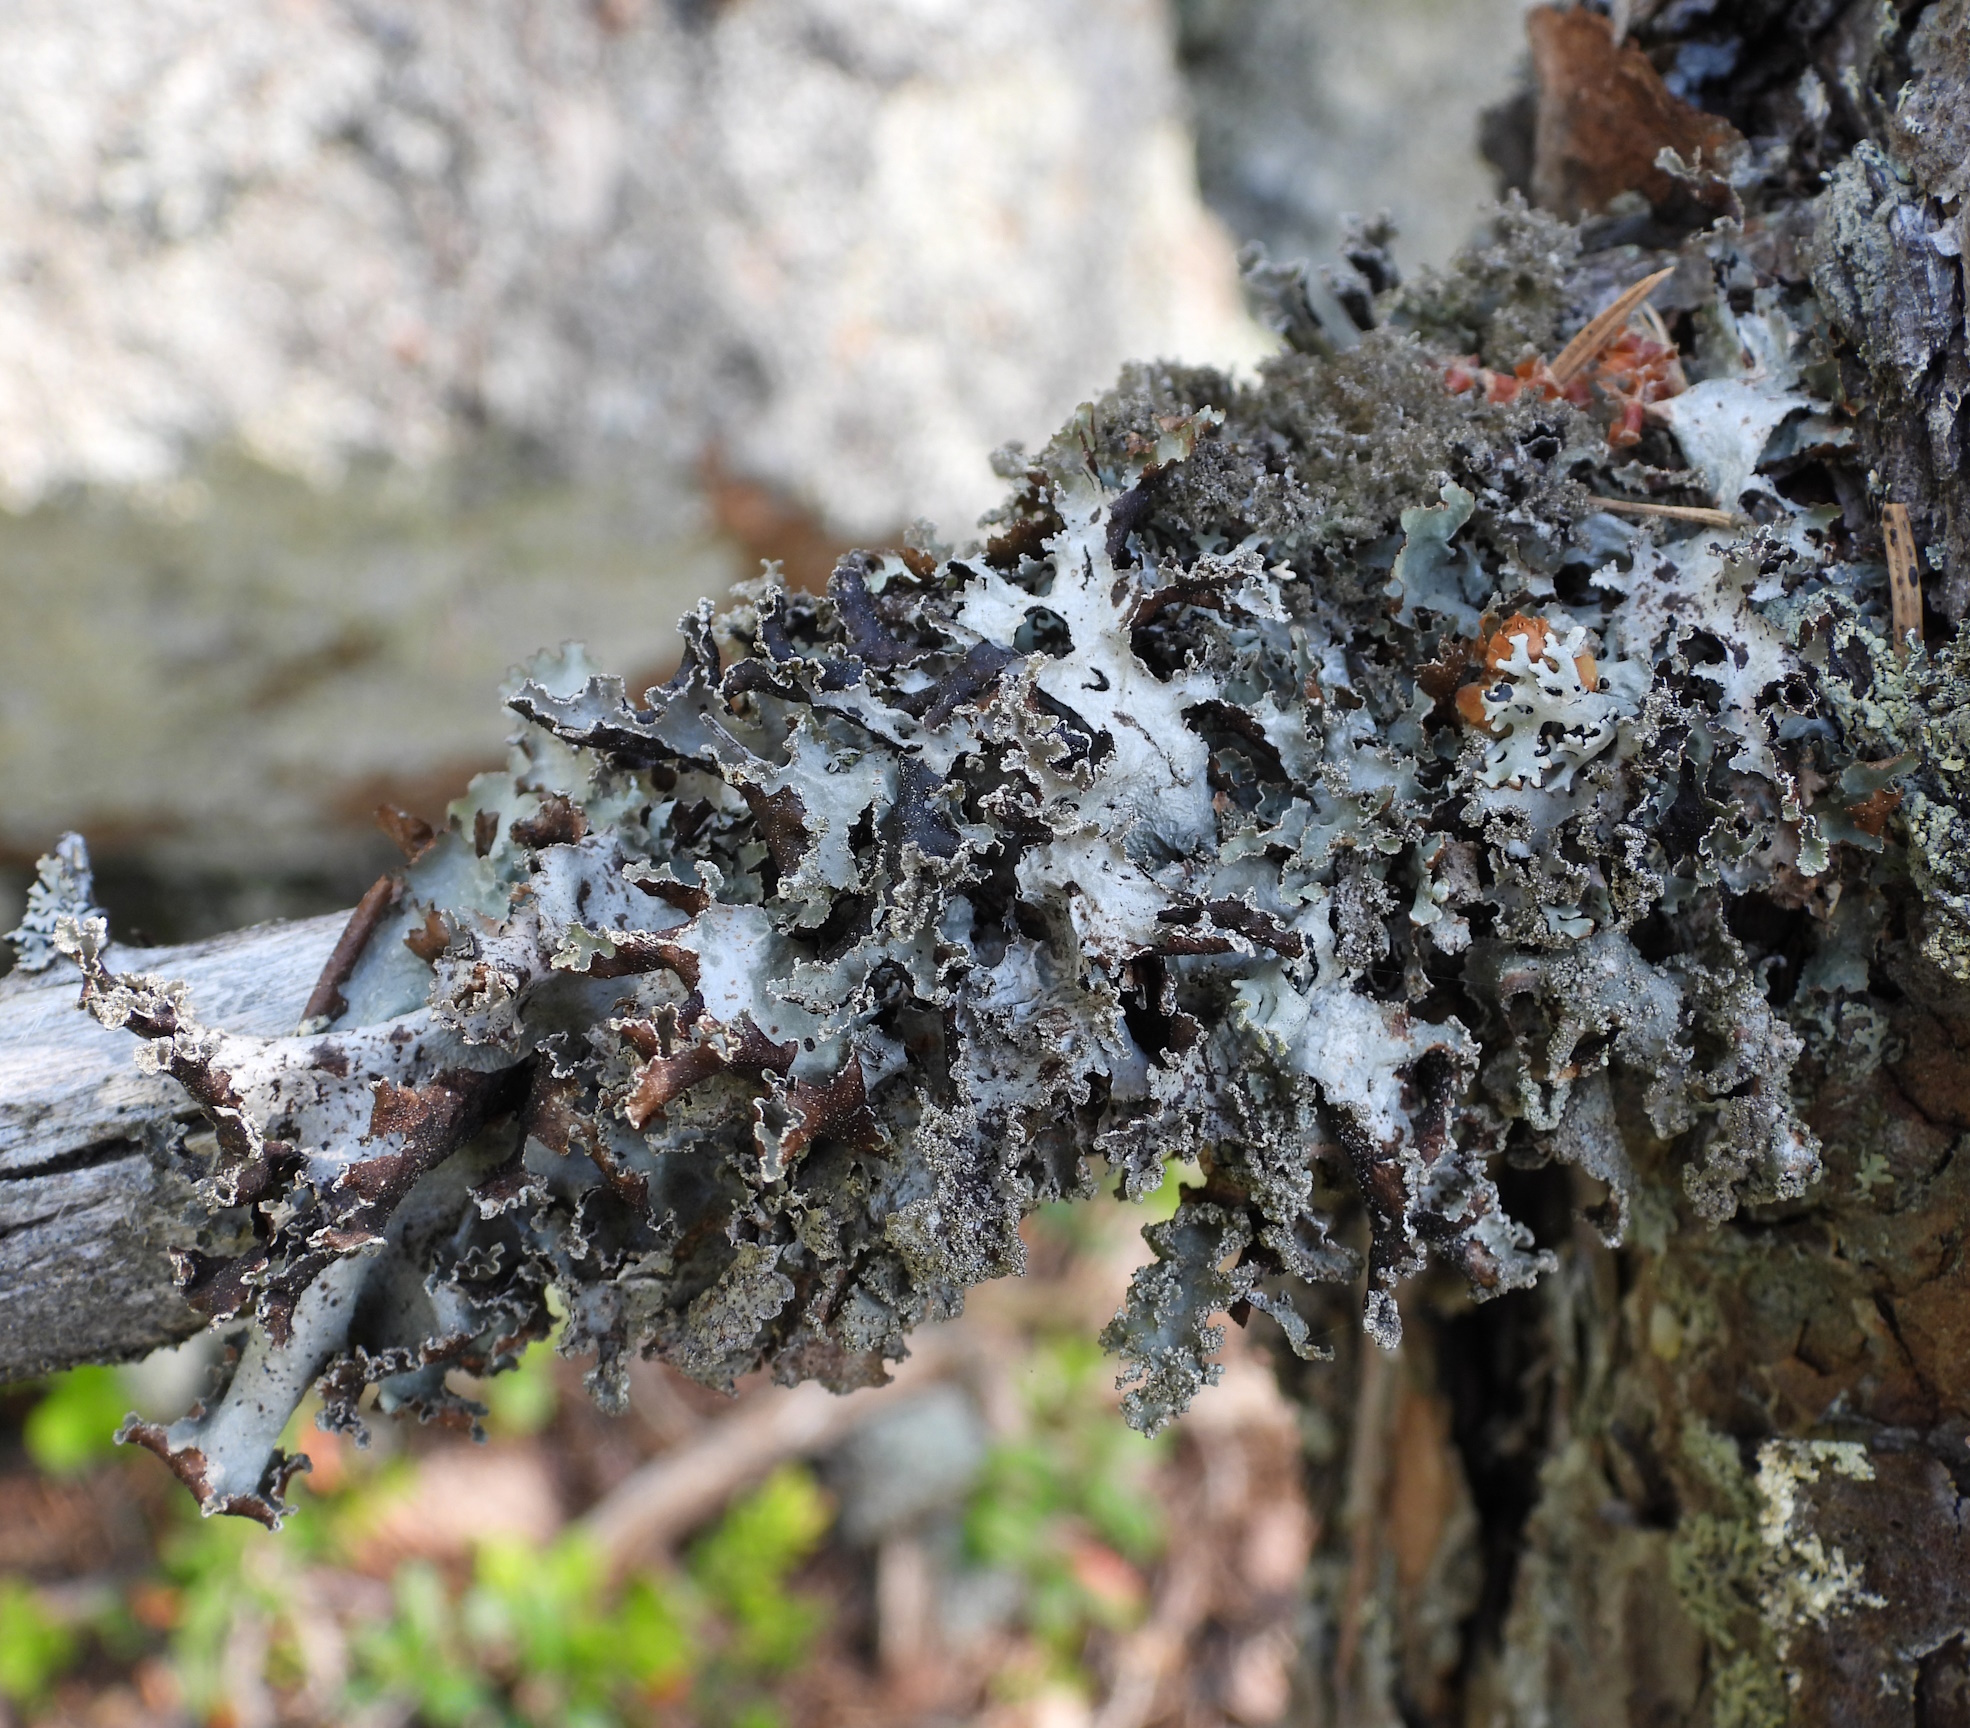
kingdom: Fungi
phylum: Ascomycota
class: Lecanoromycetes
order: Lecanorales
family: Parmeliaceae
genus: Platismatia
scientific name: Platismatia glauca
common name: Varied rag lichen
